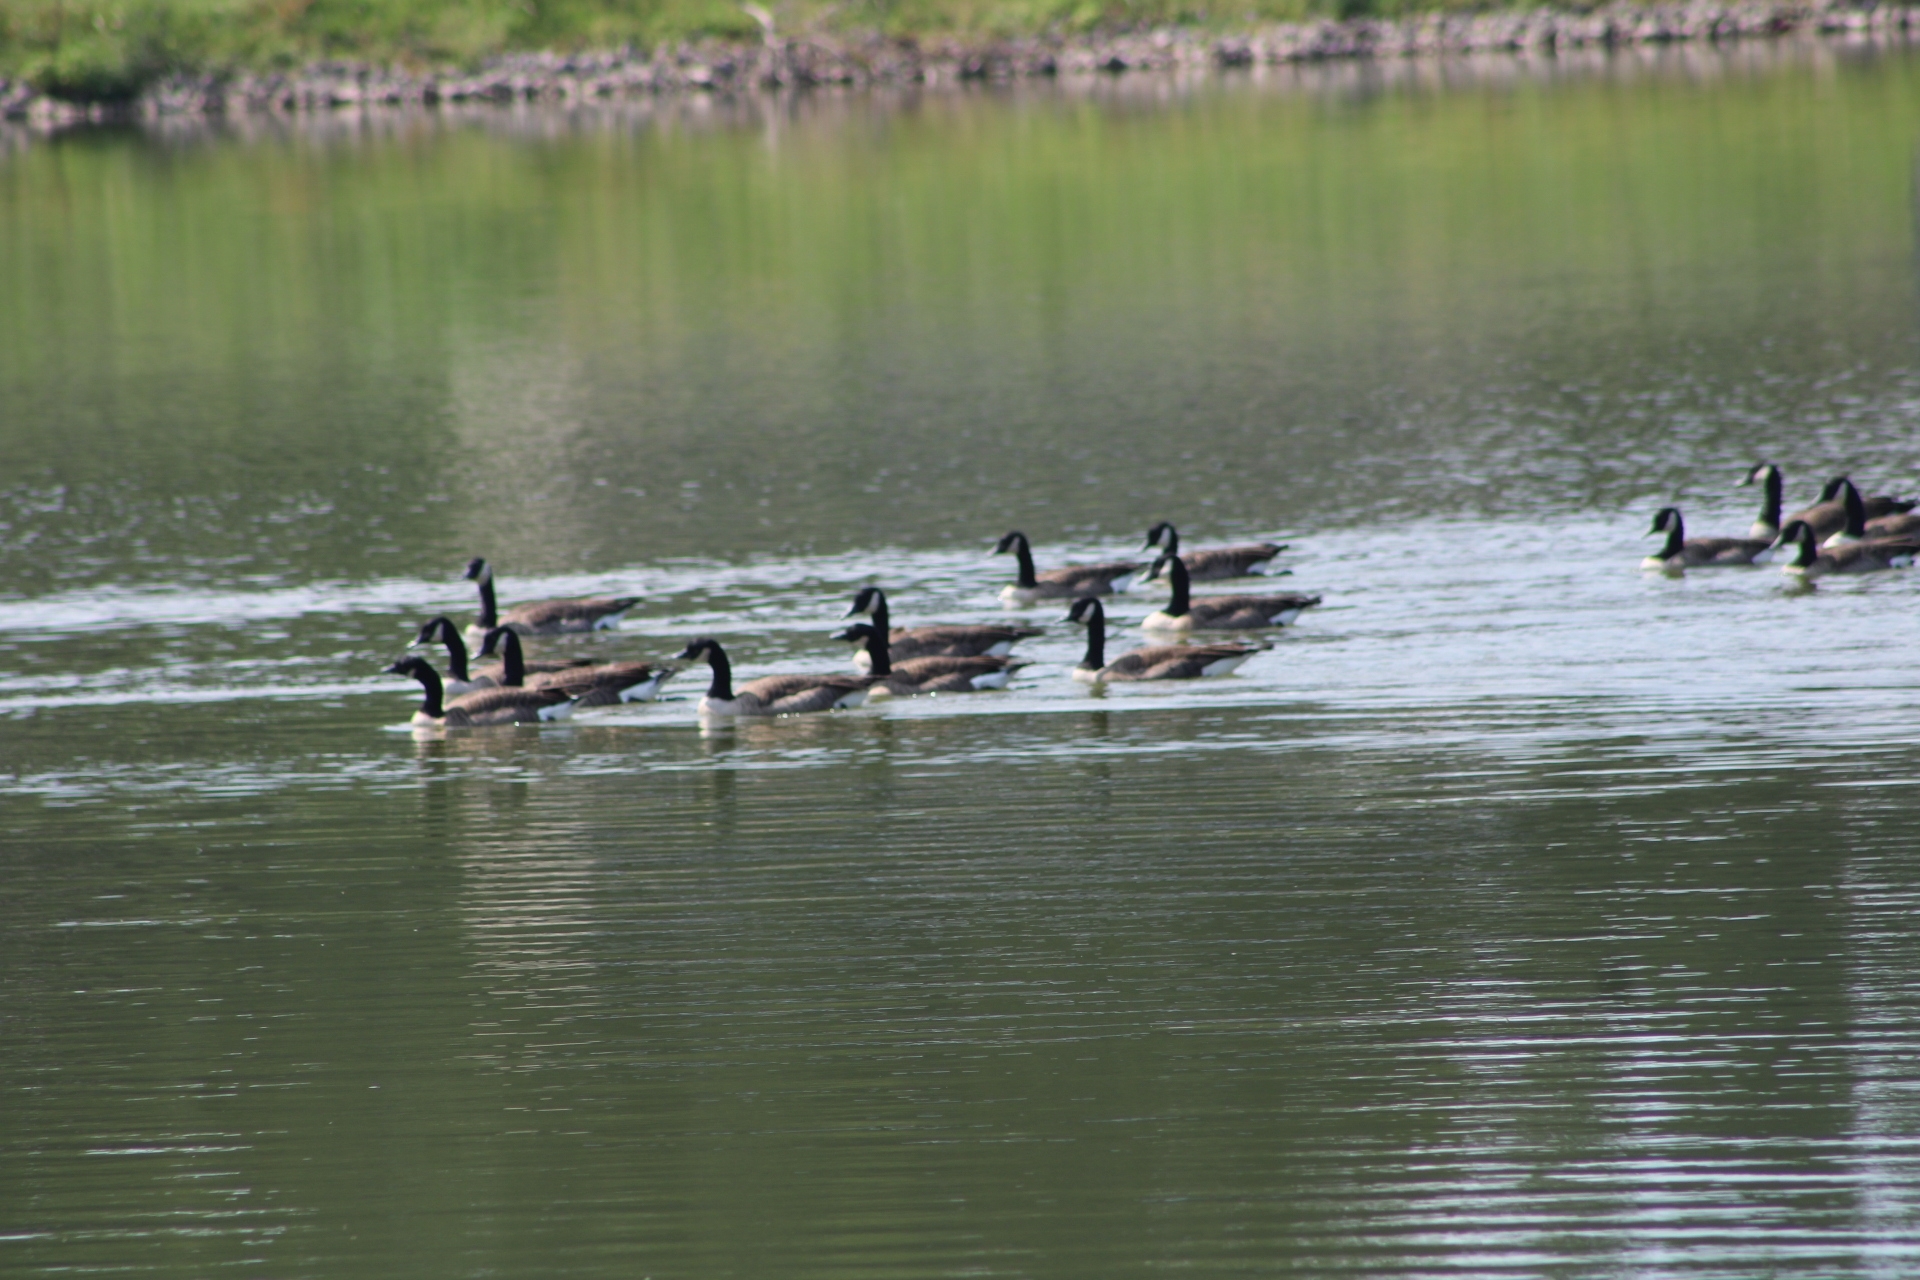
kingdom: Animalia
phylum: Chordata
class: Aves
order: Anseriformes
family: Anatidae
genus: Branta
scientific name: Branta canadensis
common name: Canada goose
